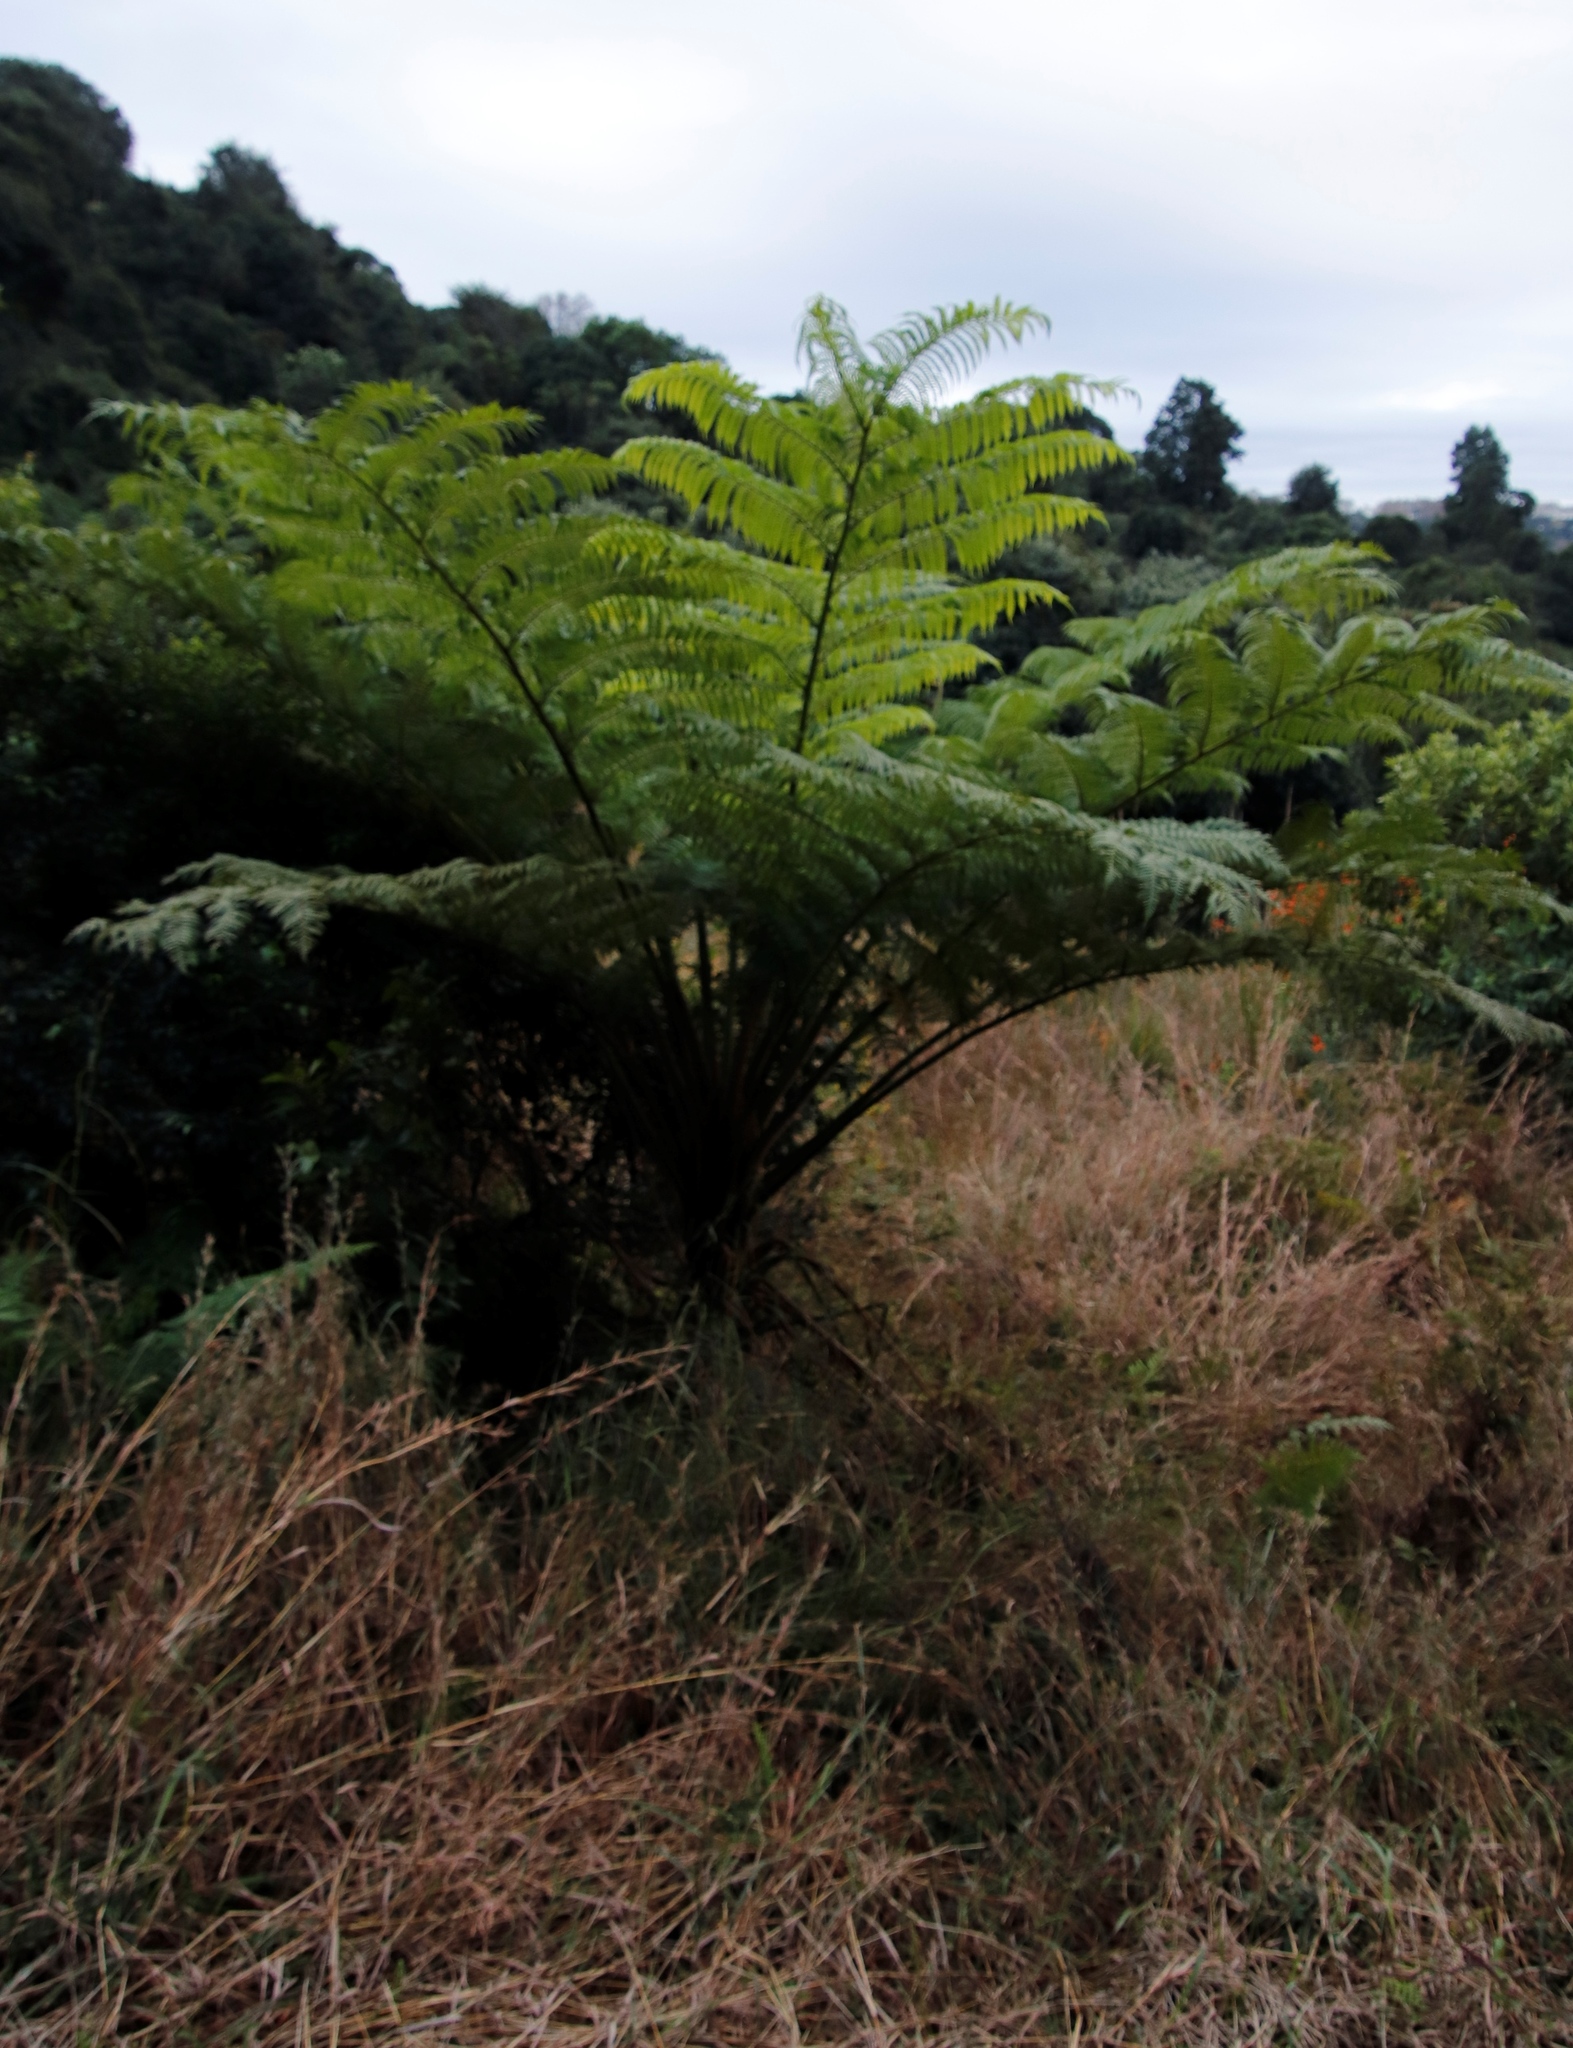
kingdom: Plantae
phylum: Tracheophyta
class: Polypodiopsida
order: Cyatheales
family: Cyatheaceae
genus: Sphaeropteris
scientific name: Sphaeropteris cooperi
